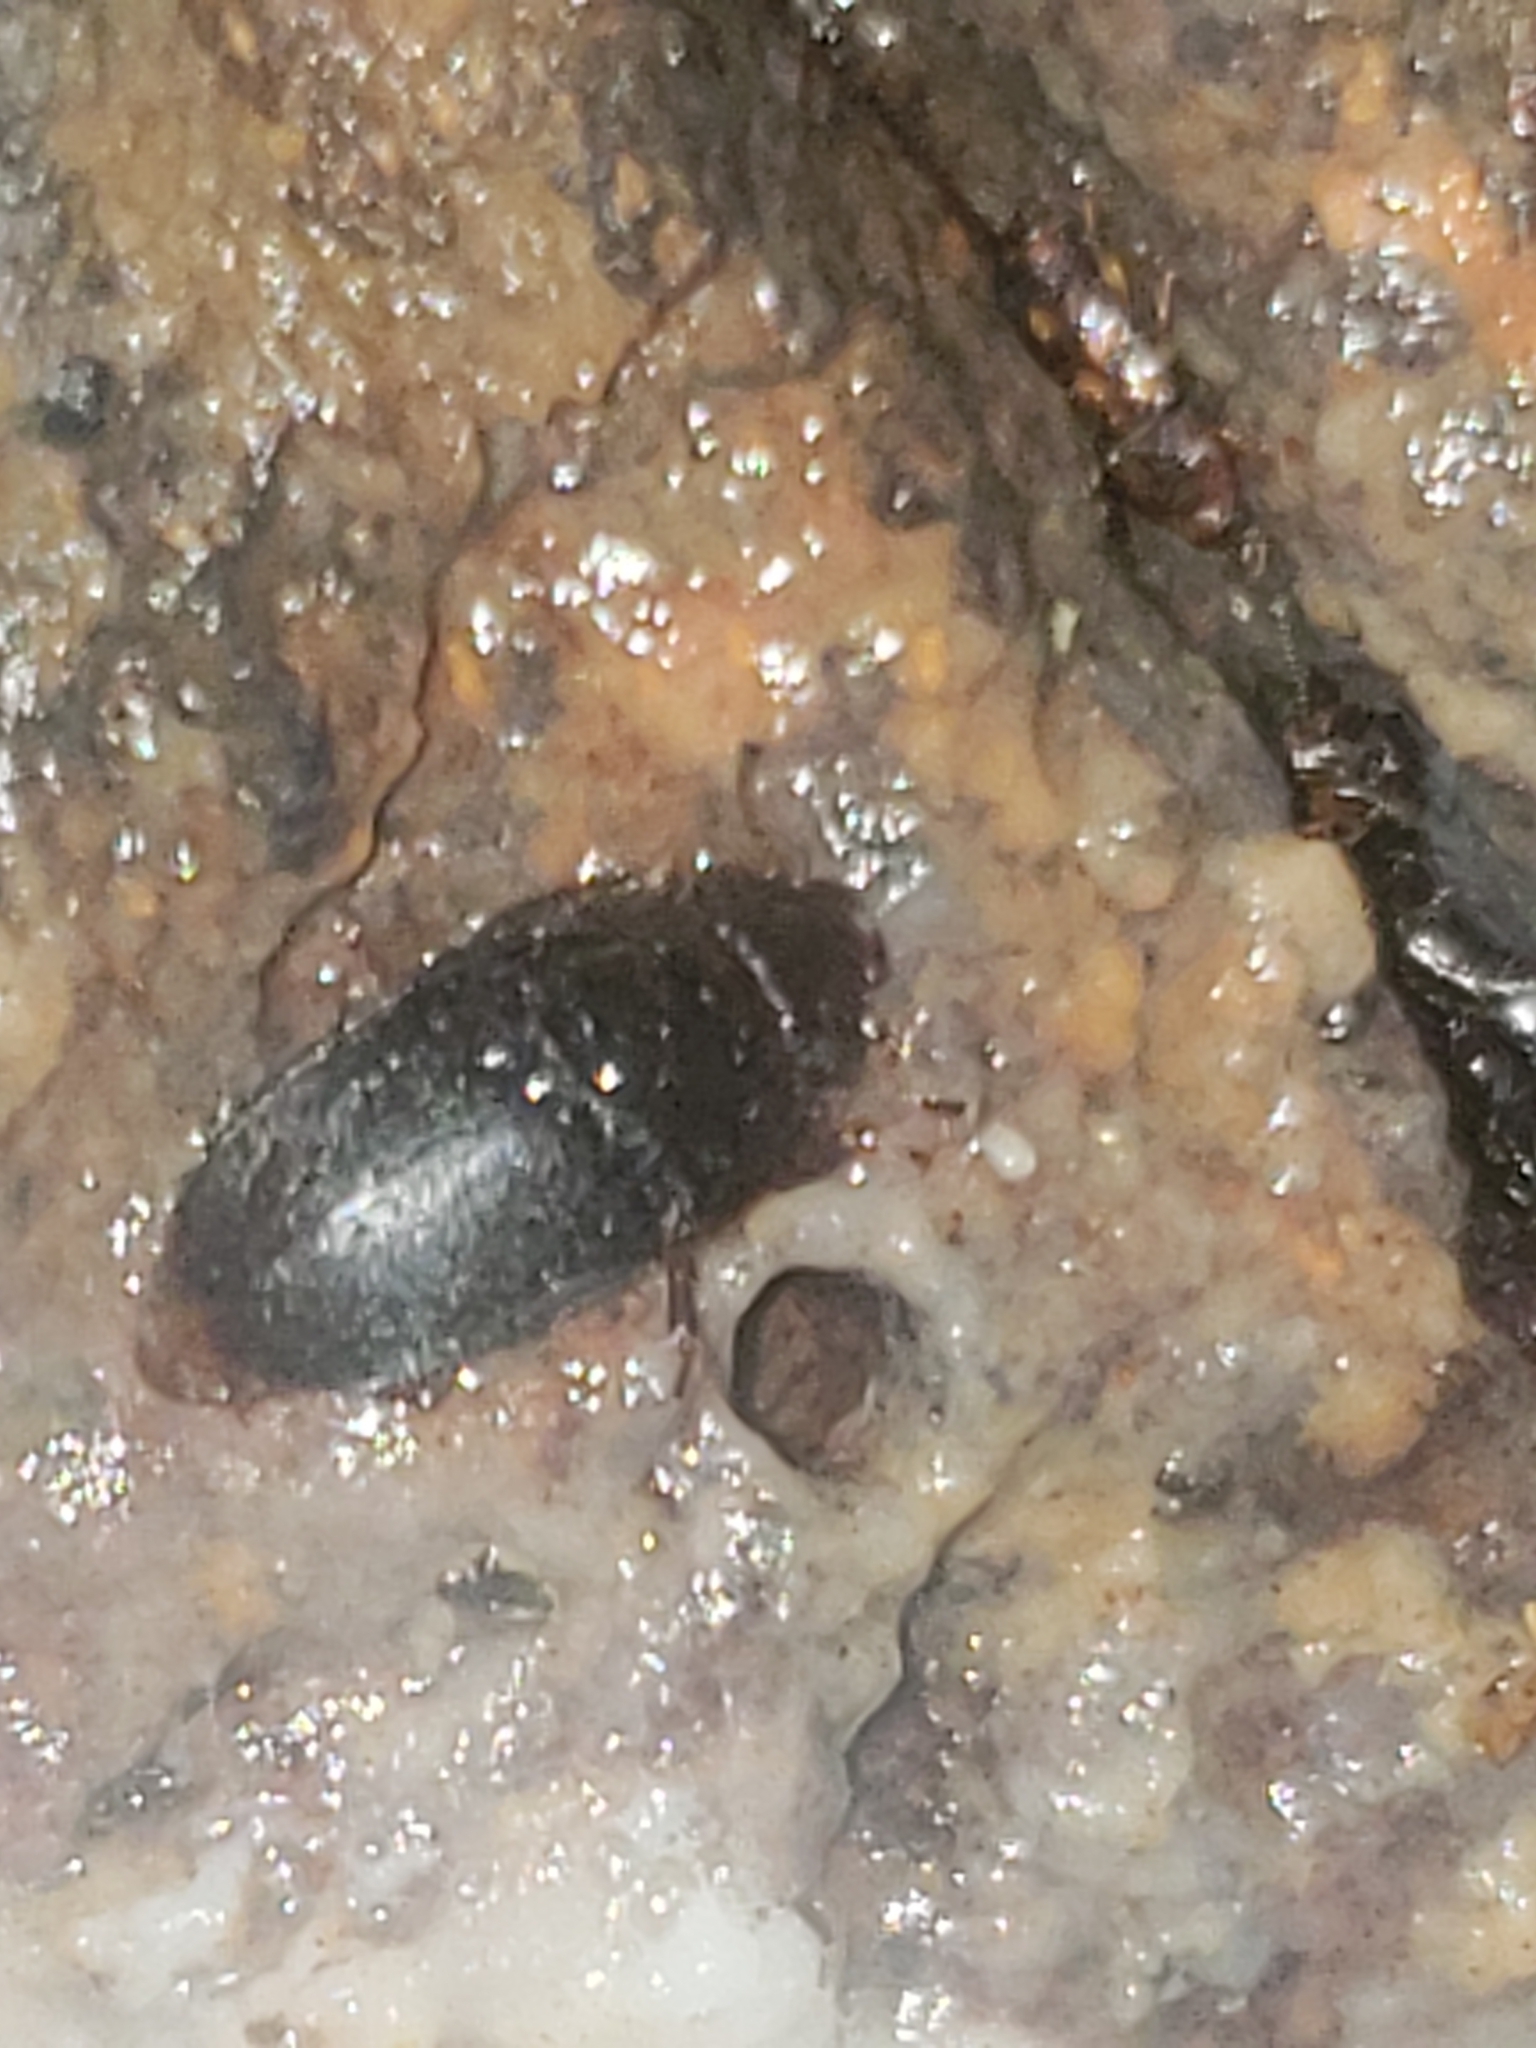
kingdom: Animalia
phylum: Arthropoda
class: Insecta
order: Coleoptera
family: Nitidulidae
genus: Cryptarcha
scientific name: Cryptarcha ampla
